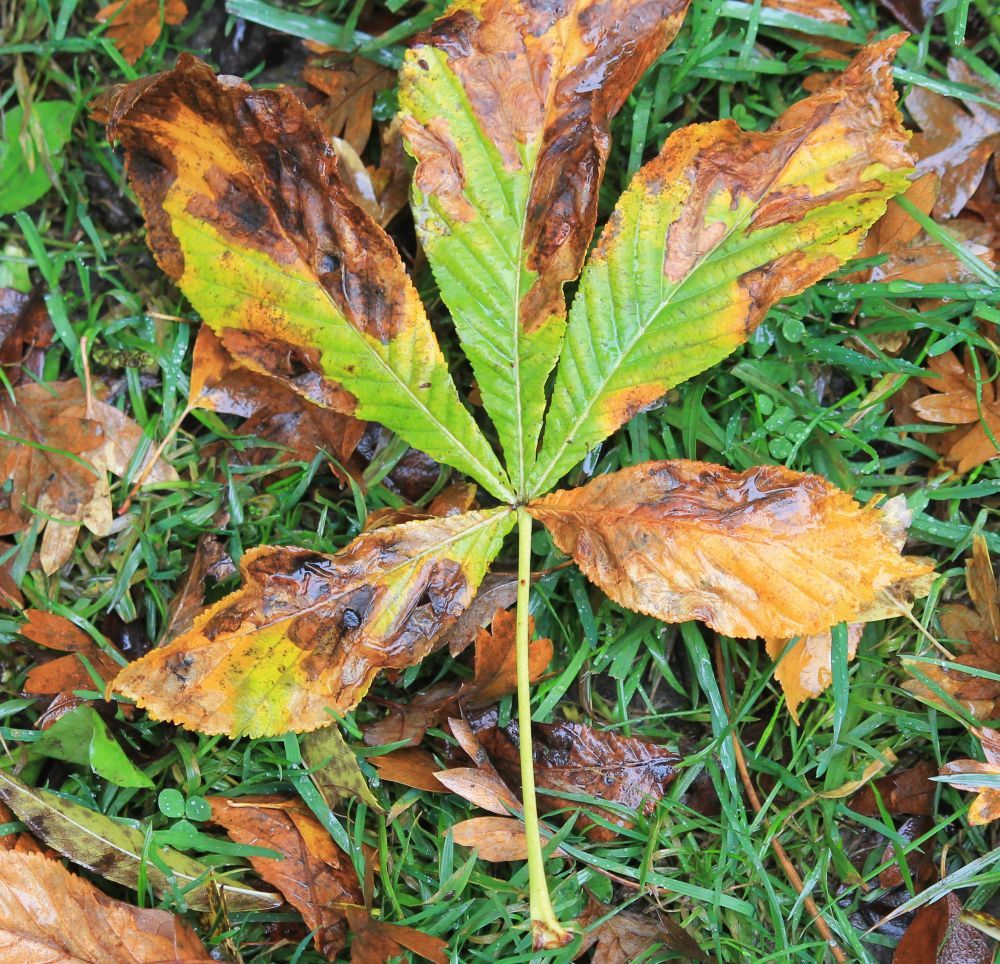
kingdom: Plantae
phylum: Tracheophyta
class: Magnoliopsida
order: Sapindales
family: Sapindaceae
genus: Aesculus
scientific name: Aesculus hippocastanum
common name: Horse-chestnut
